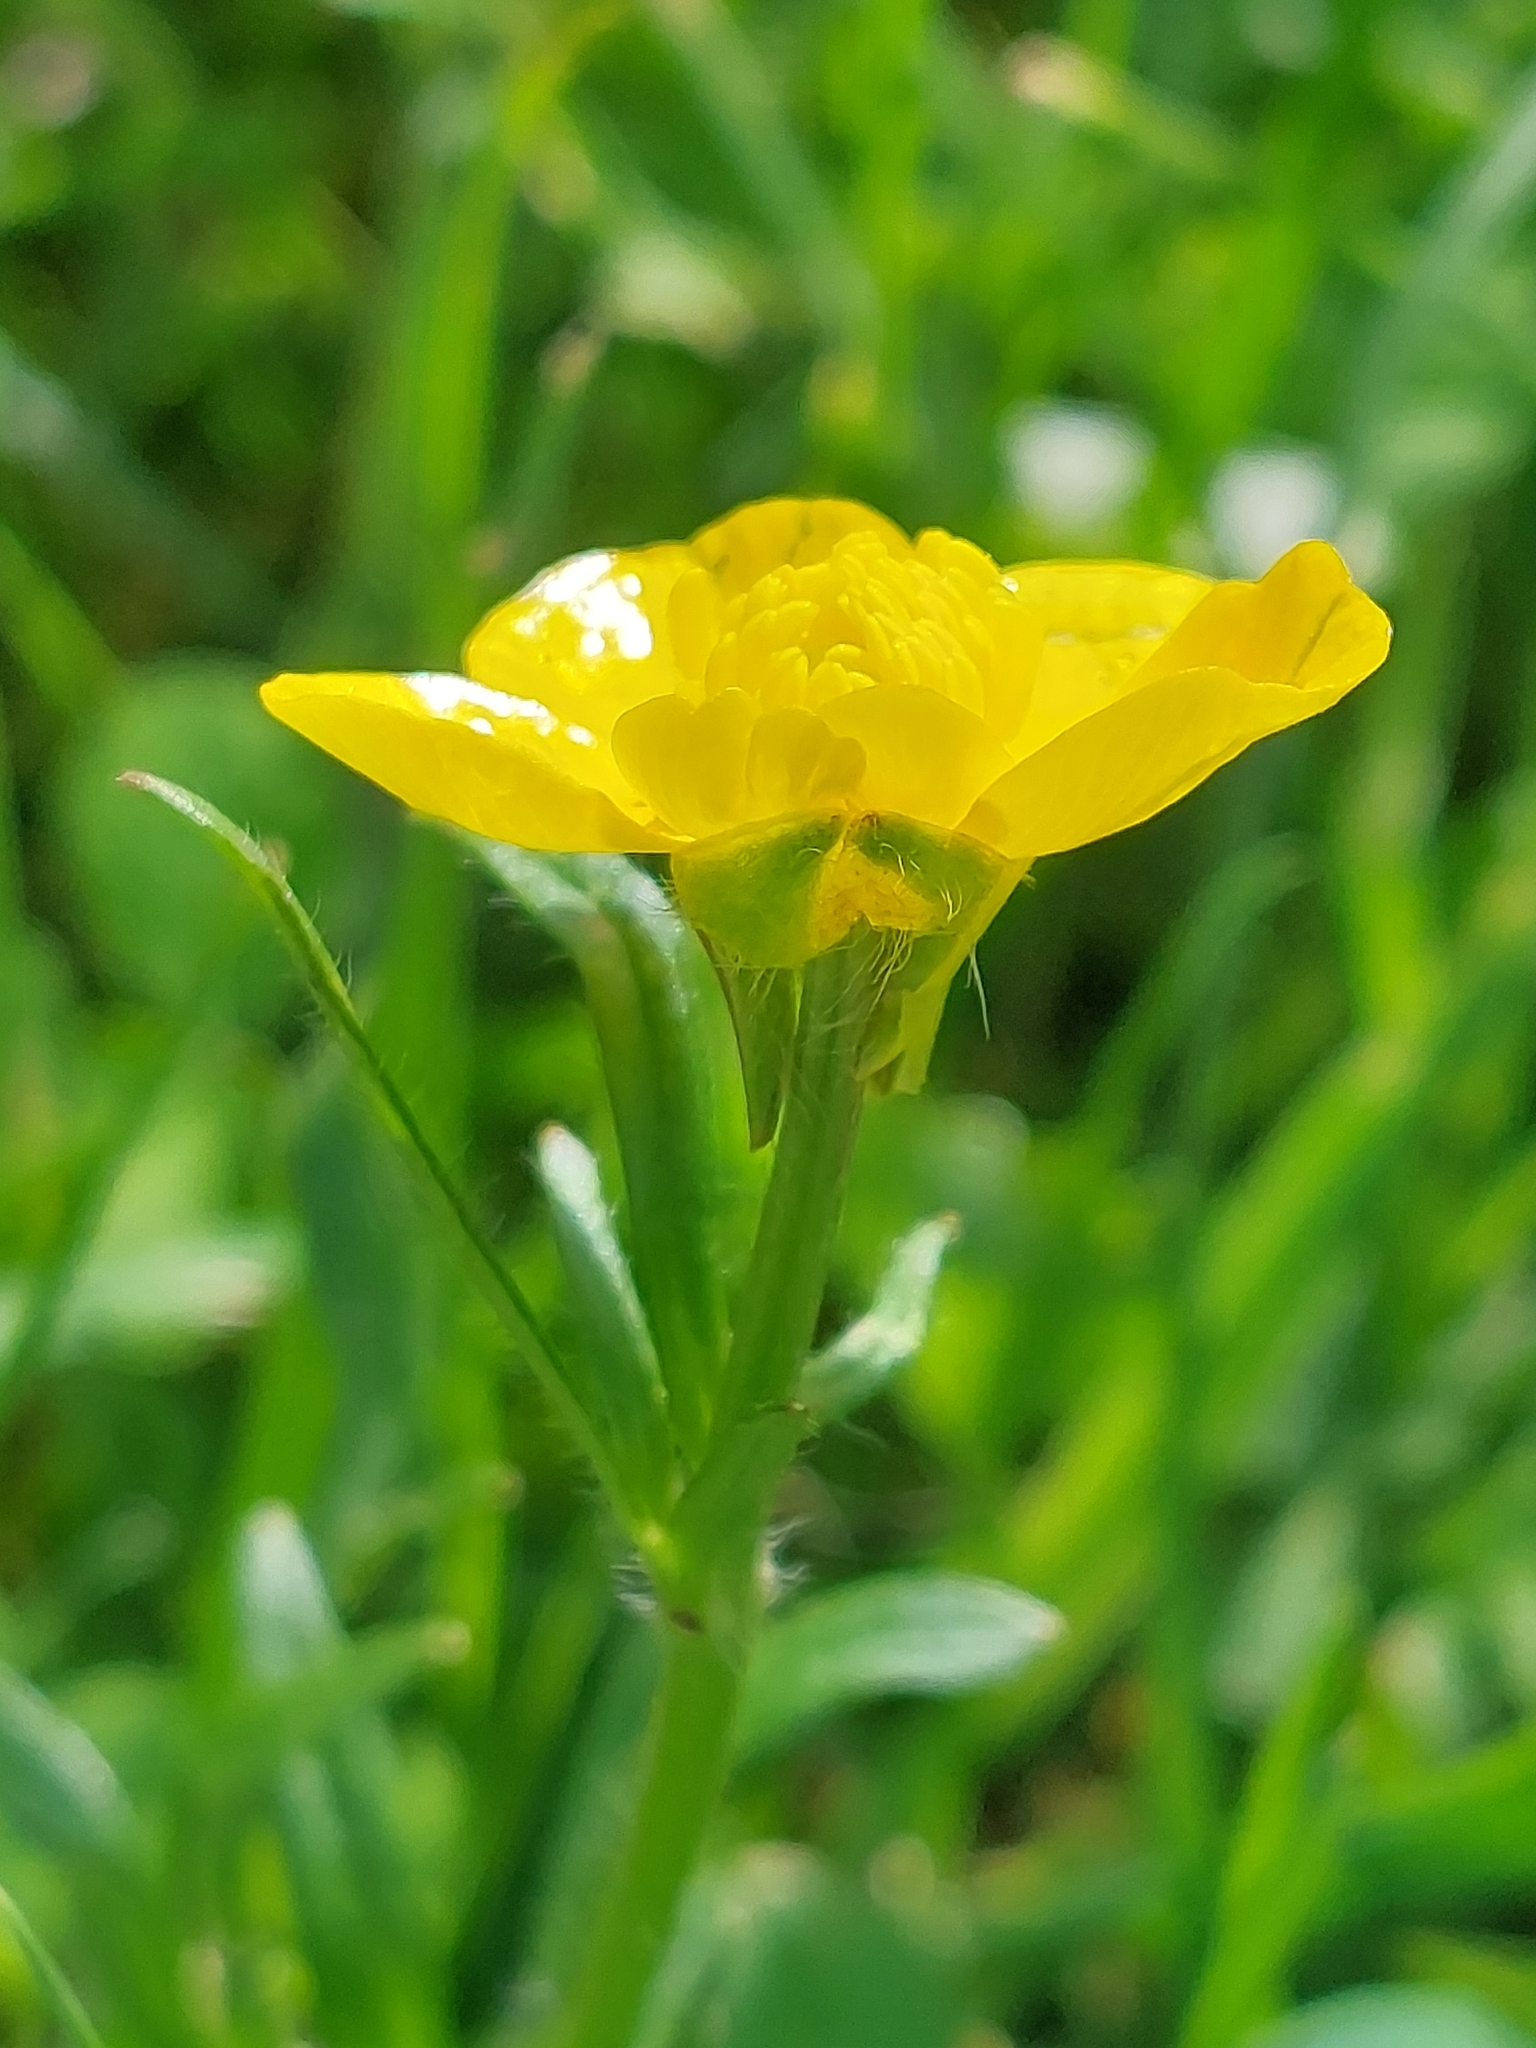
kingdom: Plantae
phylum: Tracheophyta
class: Magnoliopsida
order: Ranunculales
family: Ranunculaceae
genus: Ranunculus
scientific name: Ranunculus bulbosus
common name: Bulbous buttercup
